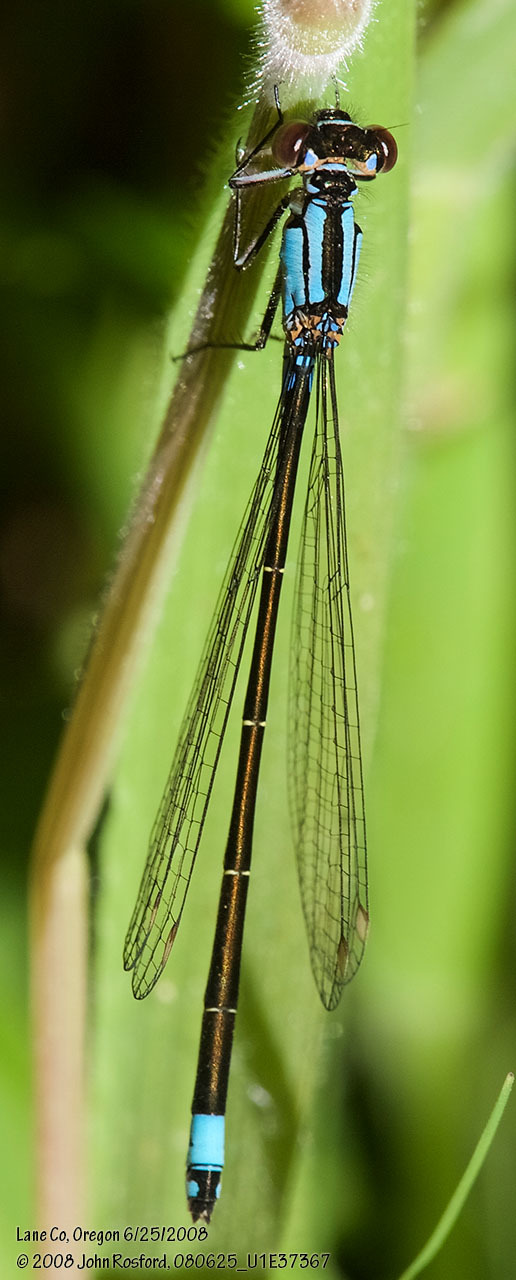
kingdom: Animalia
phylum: Arthropoda
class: Insecta
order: Odonata
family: Coenagrionidae
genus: Ischnura
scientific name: Ischnura cervula
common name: Pacific forktail
